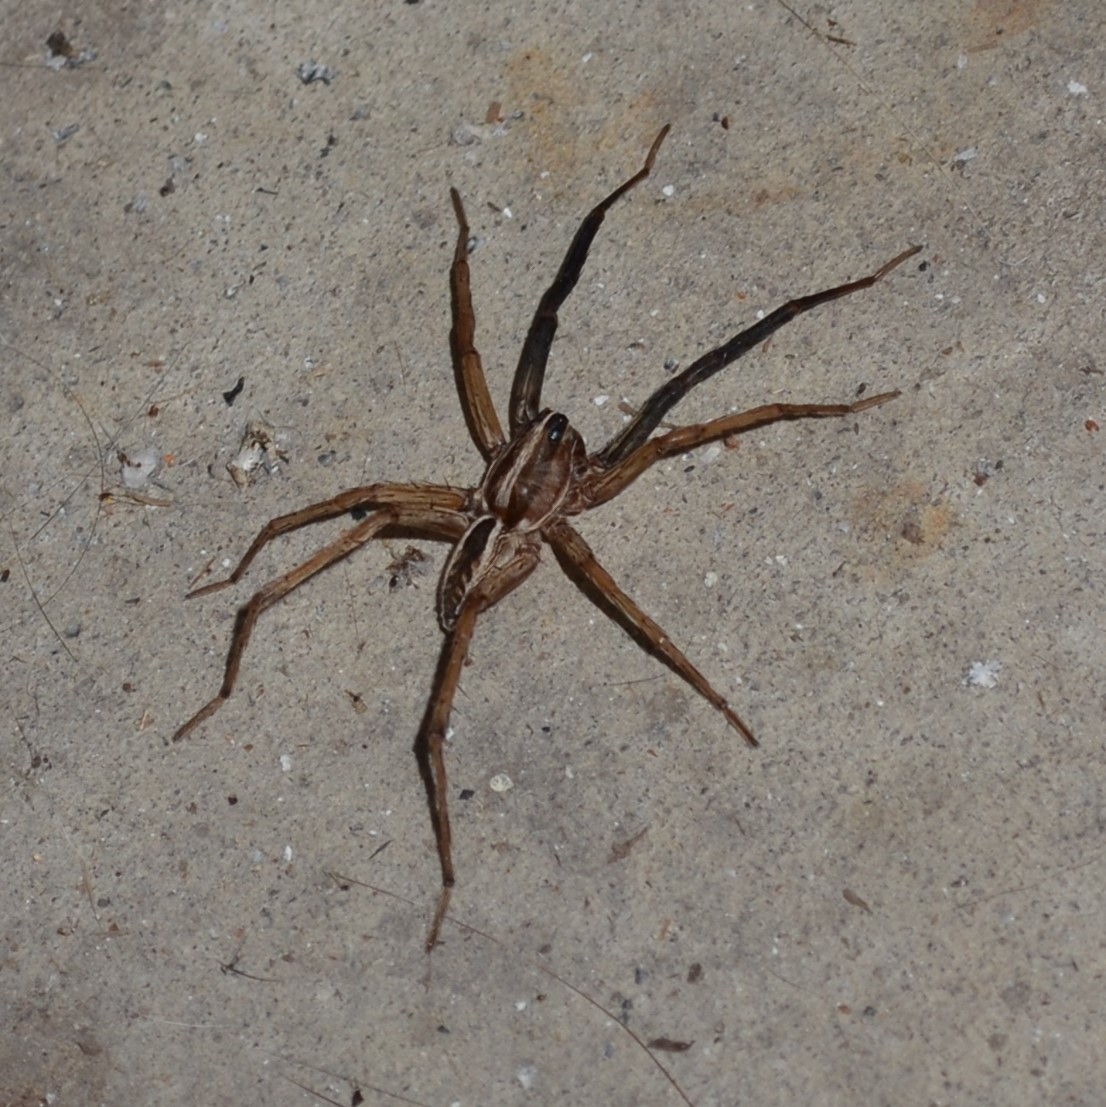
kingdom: Animalia
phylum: Arthropoda
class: Arachnida
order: Araneae
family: Lycosidae
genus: Rabidosa
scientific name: Rabidosa rabida
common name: Rabid wolf spider
